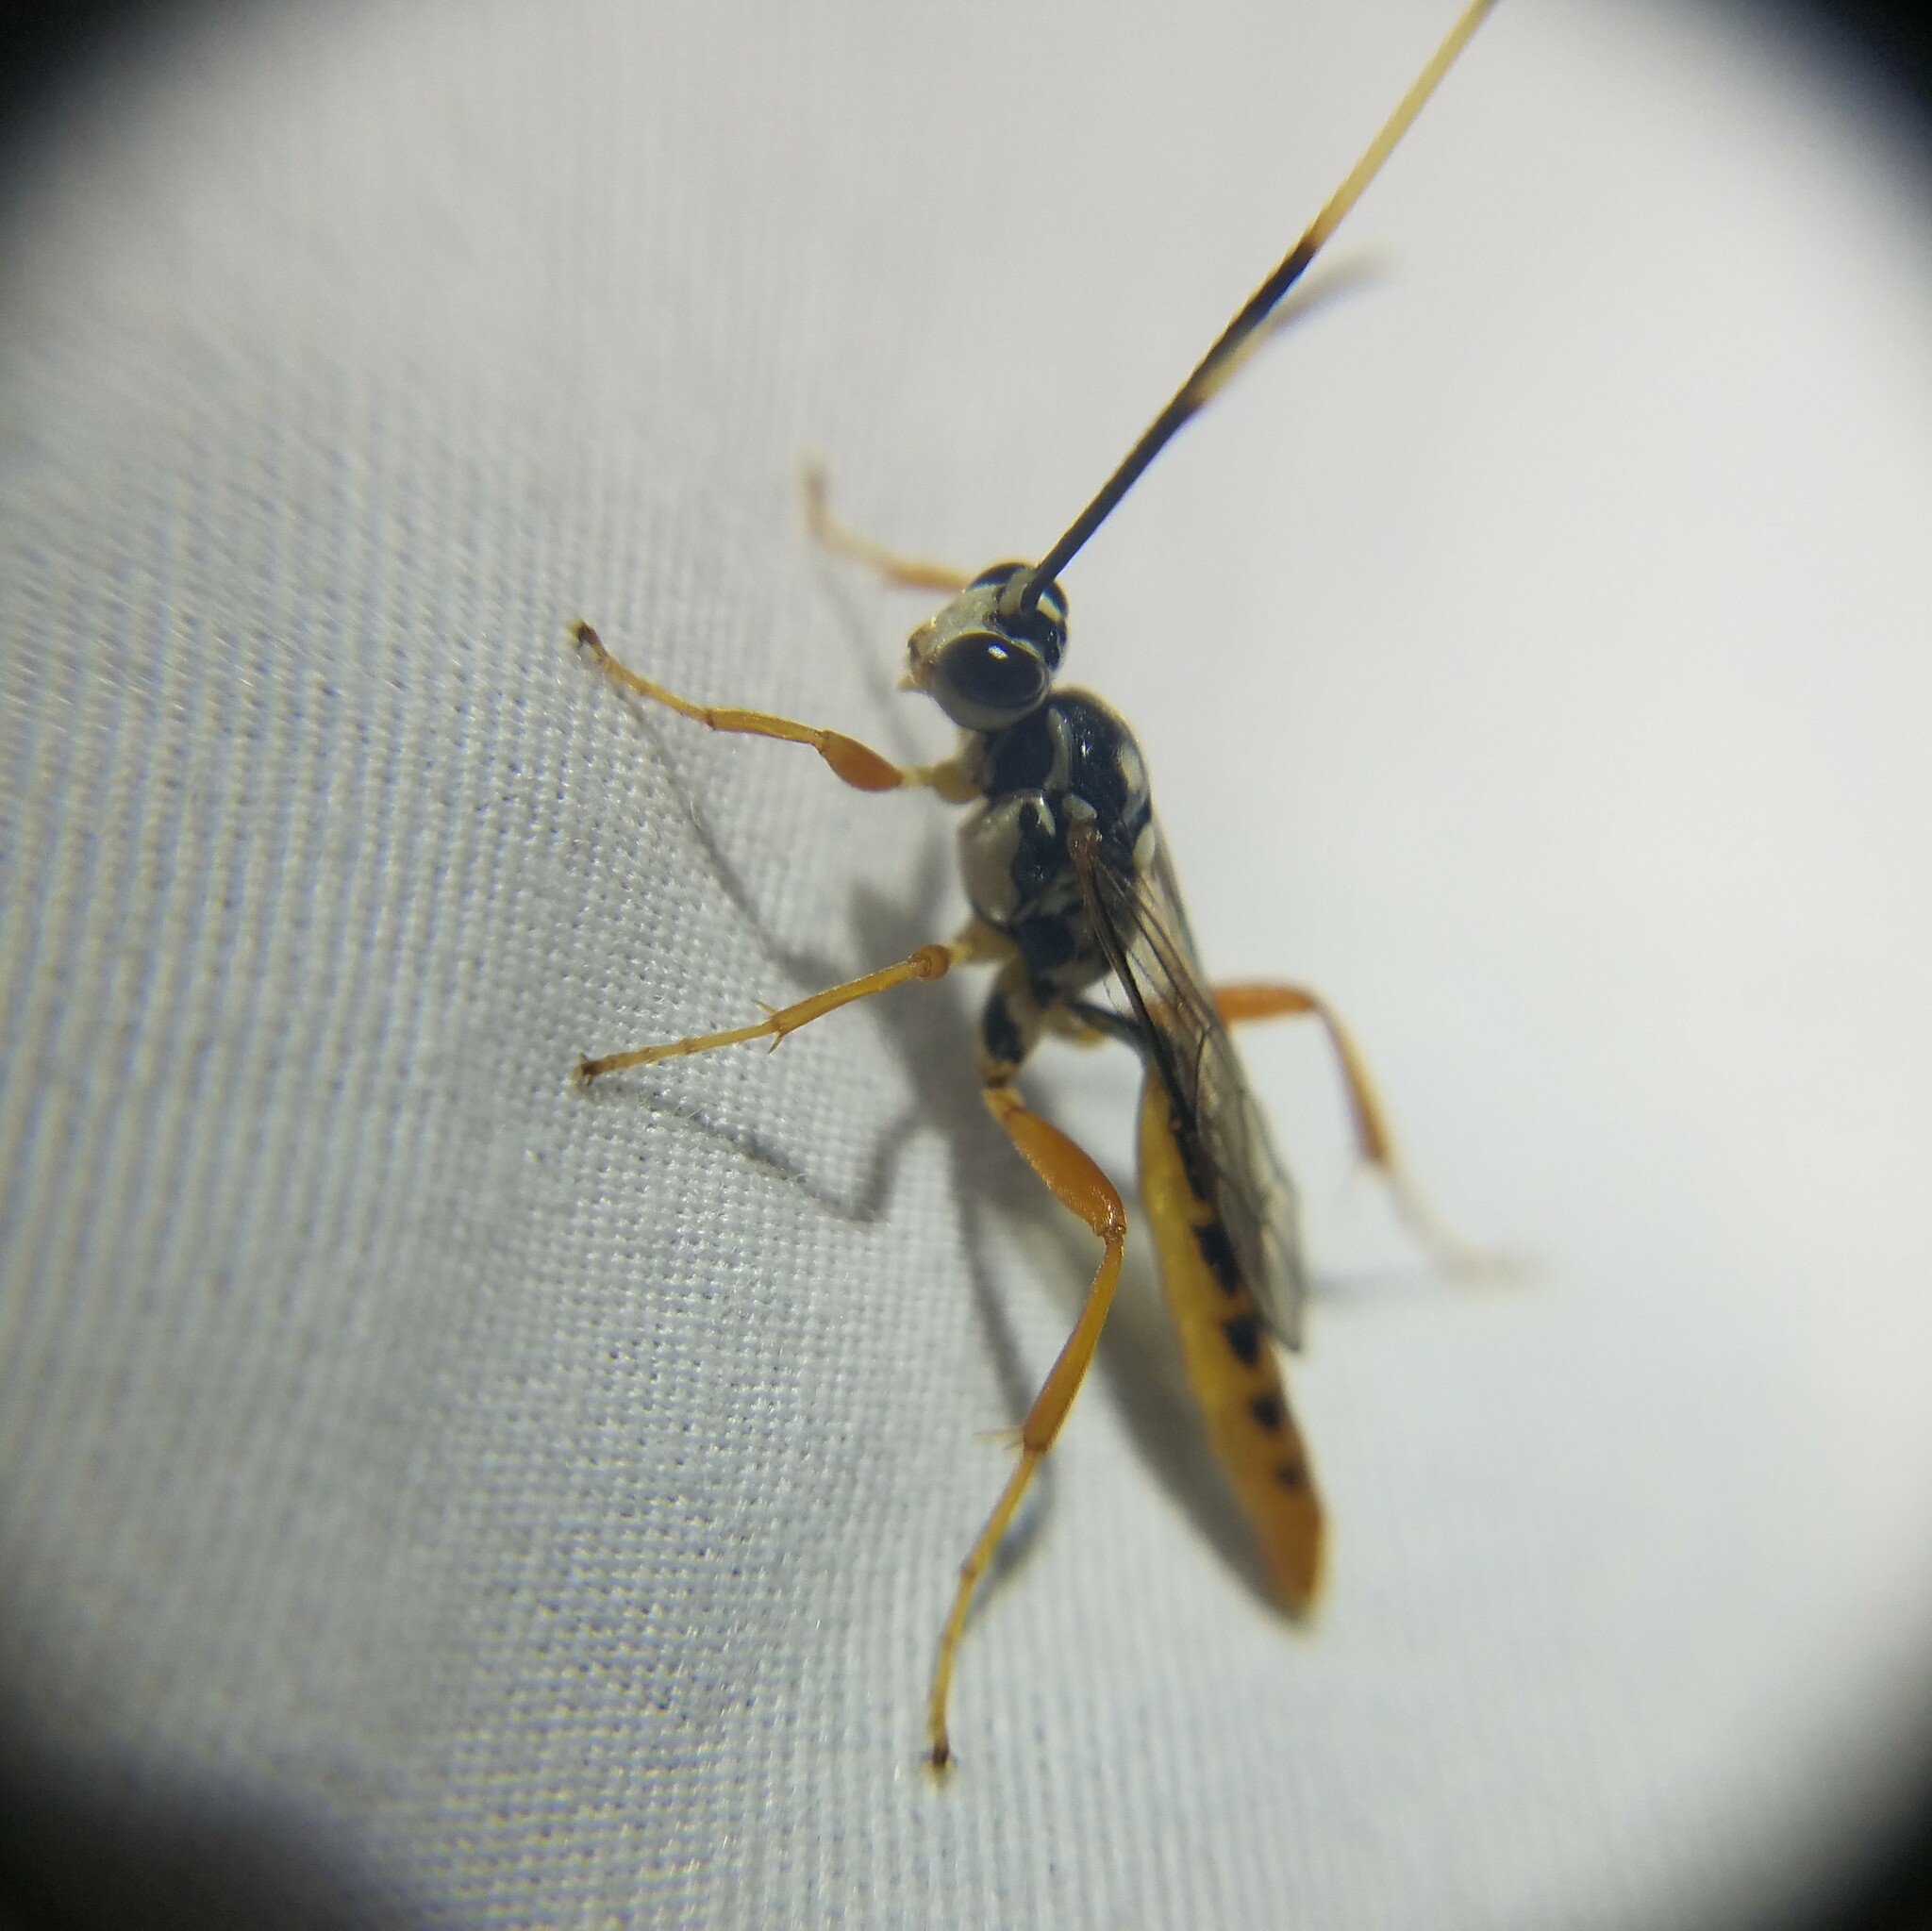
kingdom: Animalia
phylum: Arthropoda
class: Insecta
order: Hymenoptera
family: Ichneumonidae
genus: Cratichneumon
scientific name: Cratichneumon w-album
